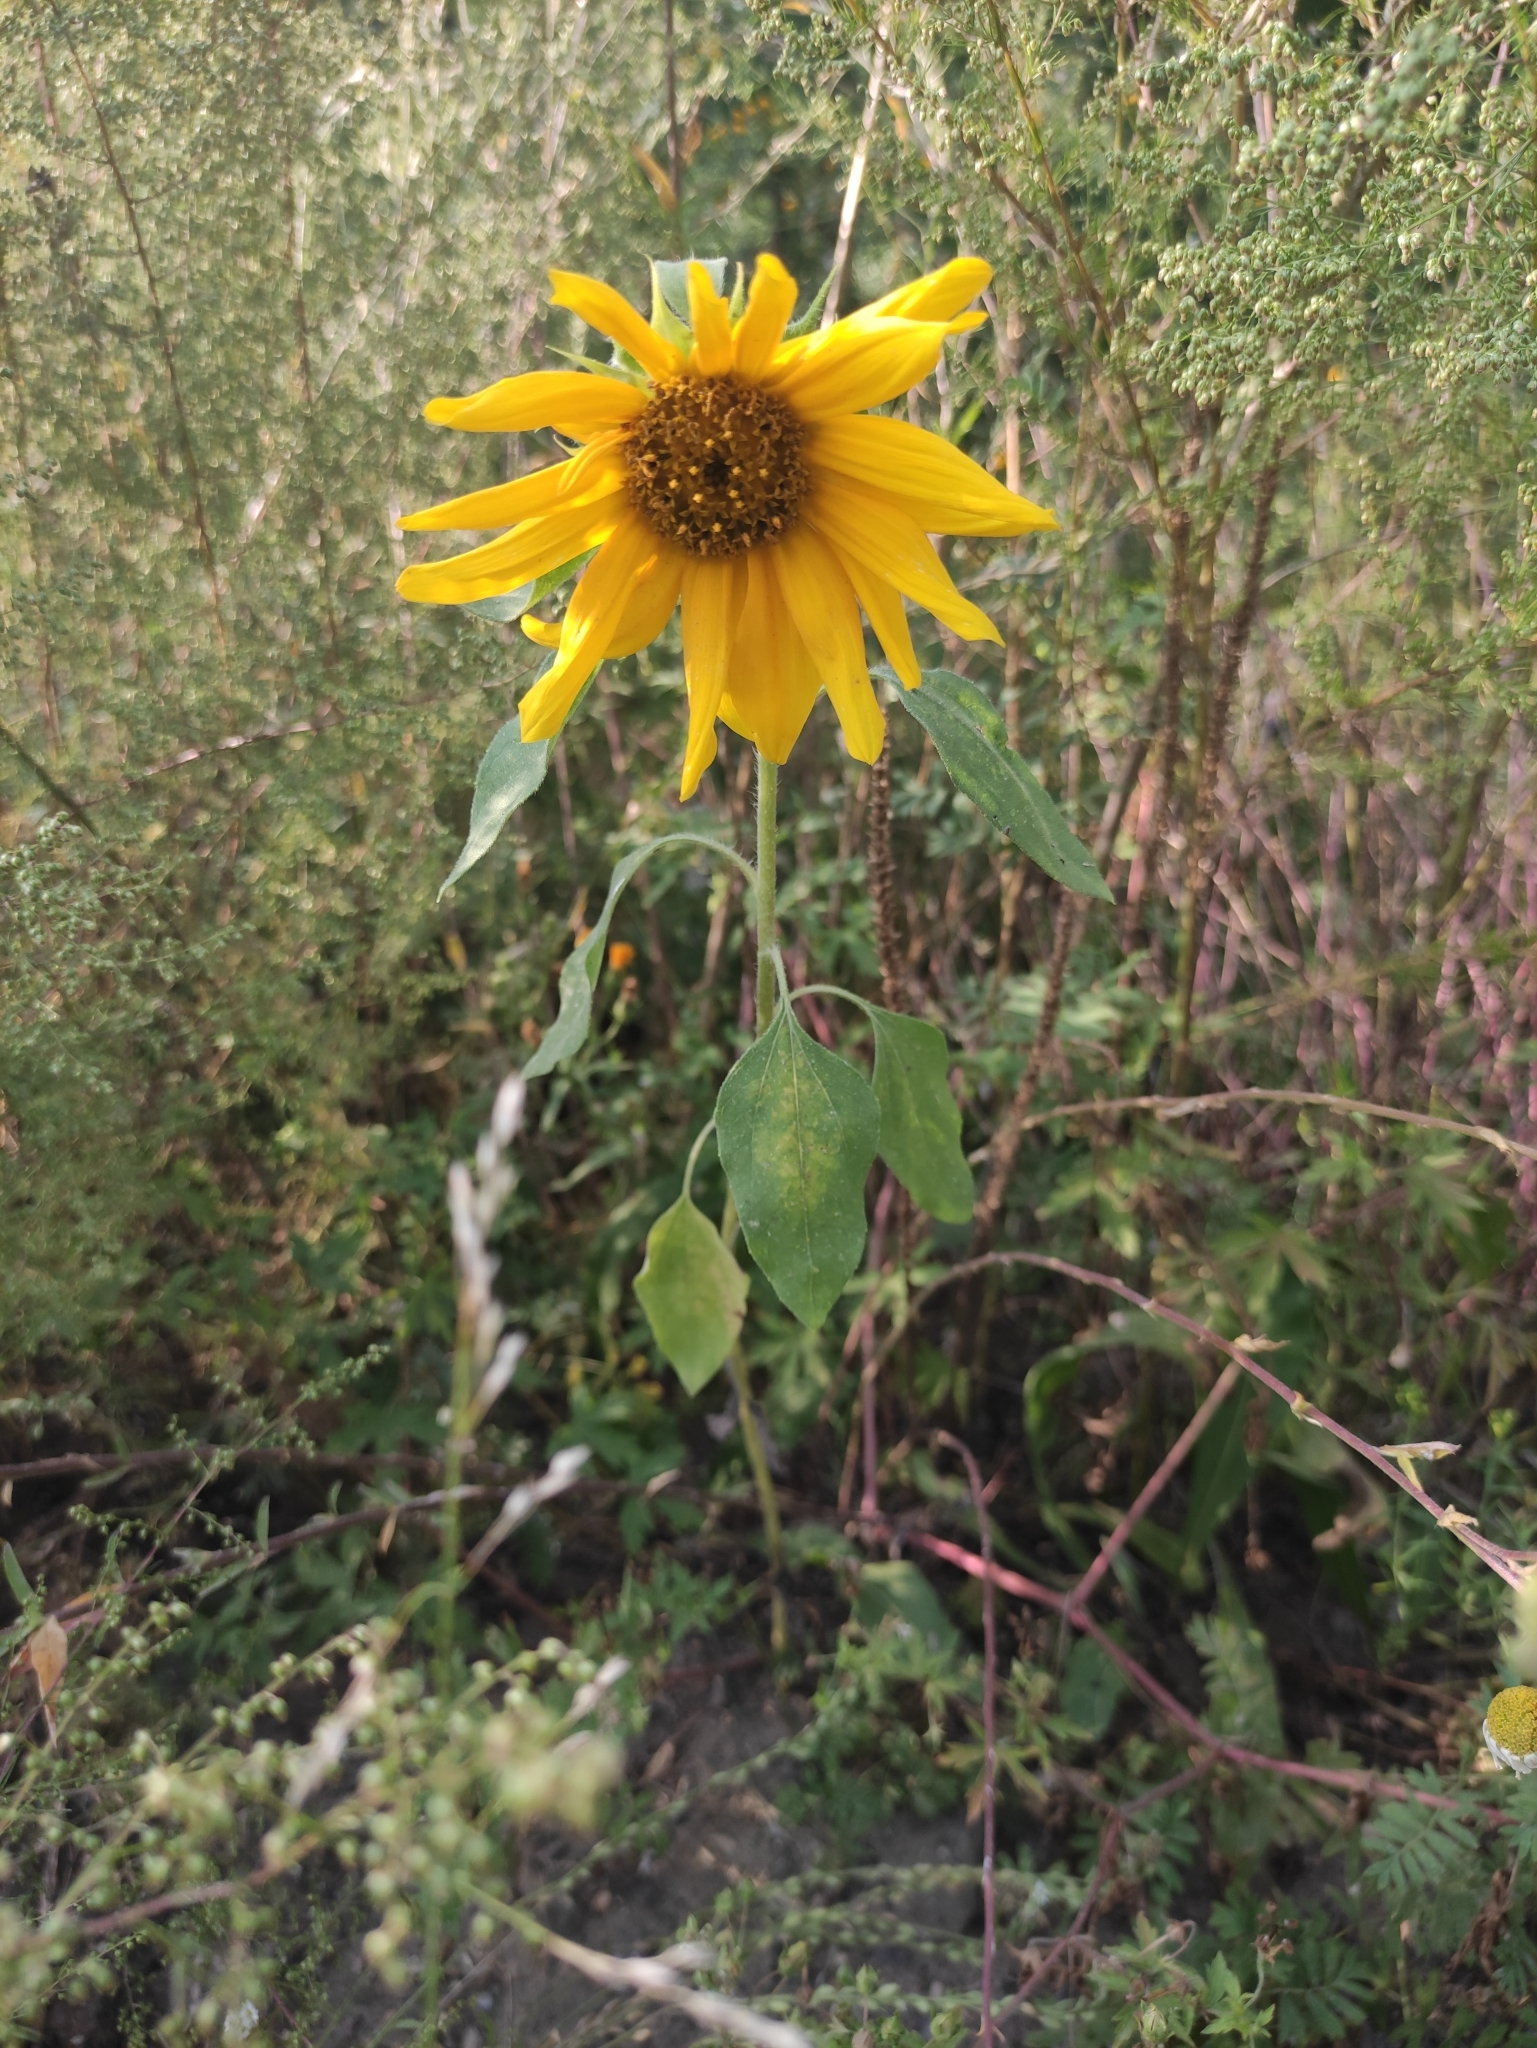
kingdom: Plantae
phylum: Tracheophyta
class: Magnoliopsida
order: Asterales
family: Asteraceae
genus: Helianthus
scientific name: Helianthus annuus
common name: Sunflower
